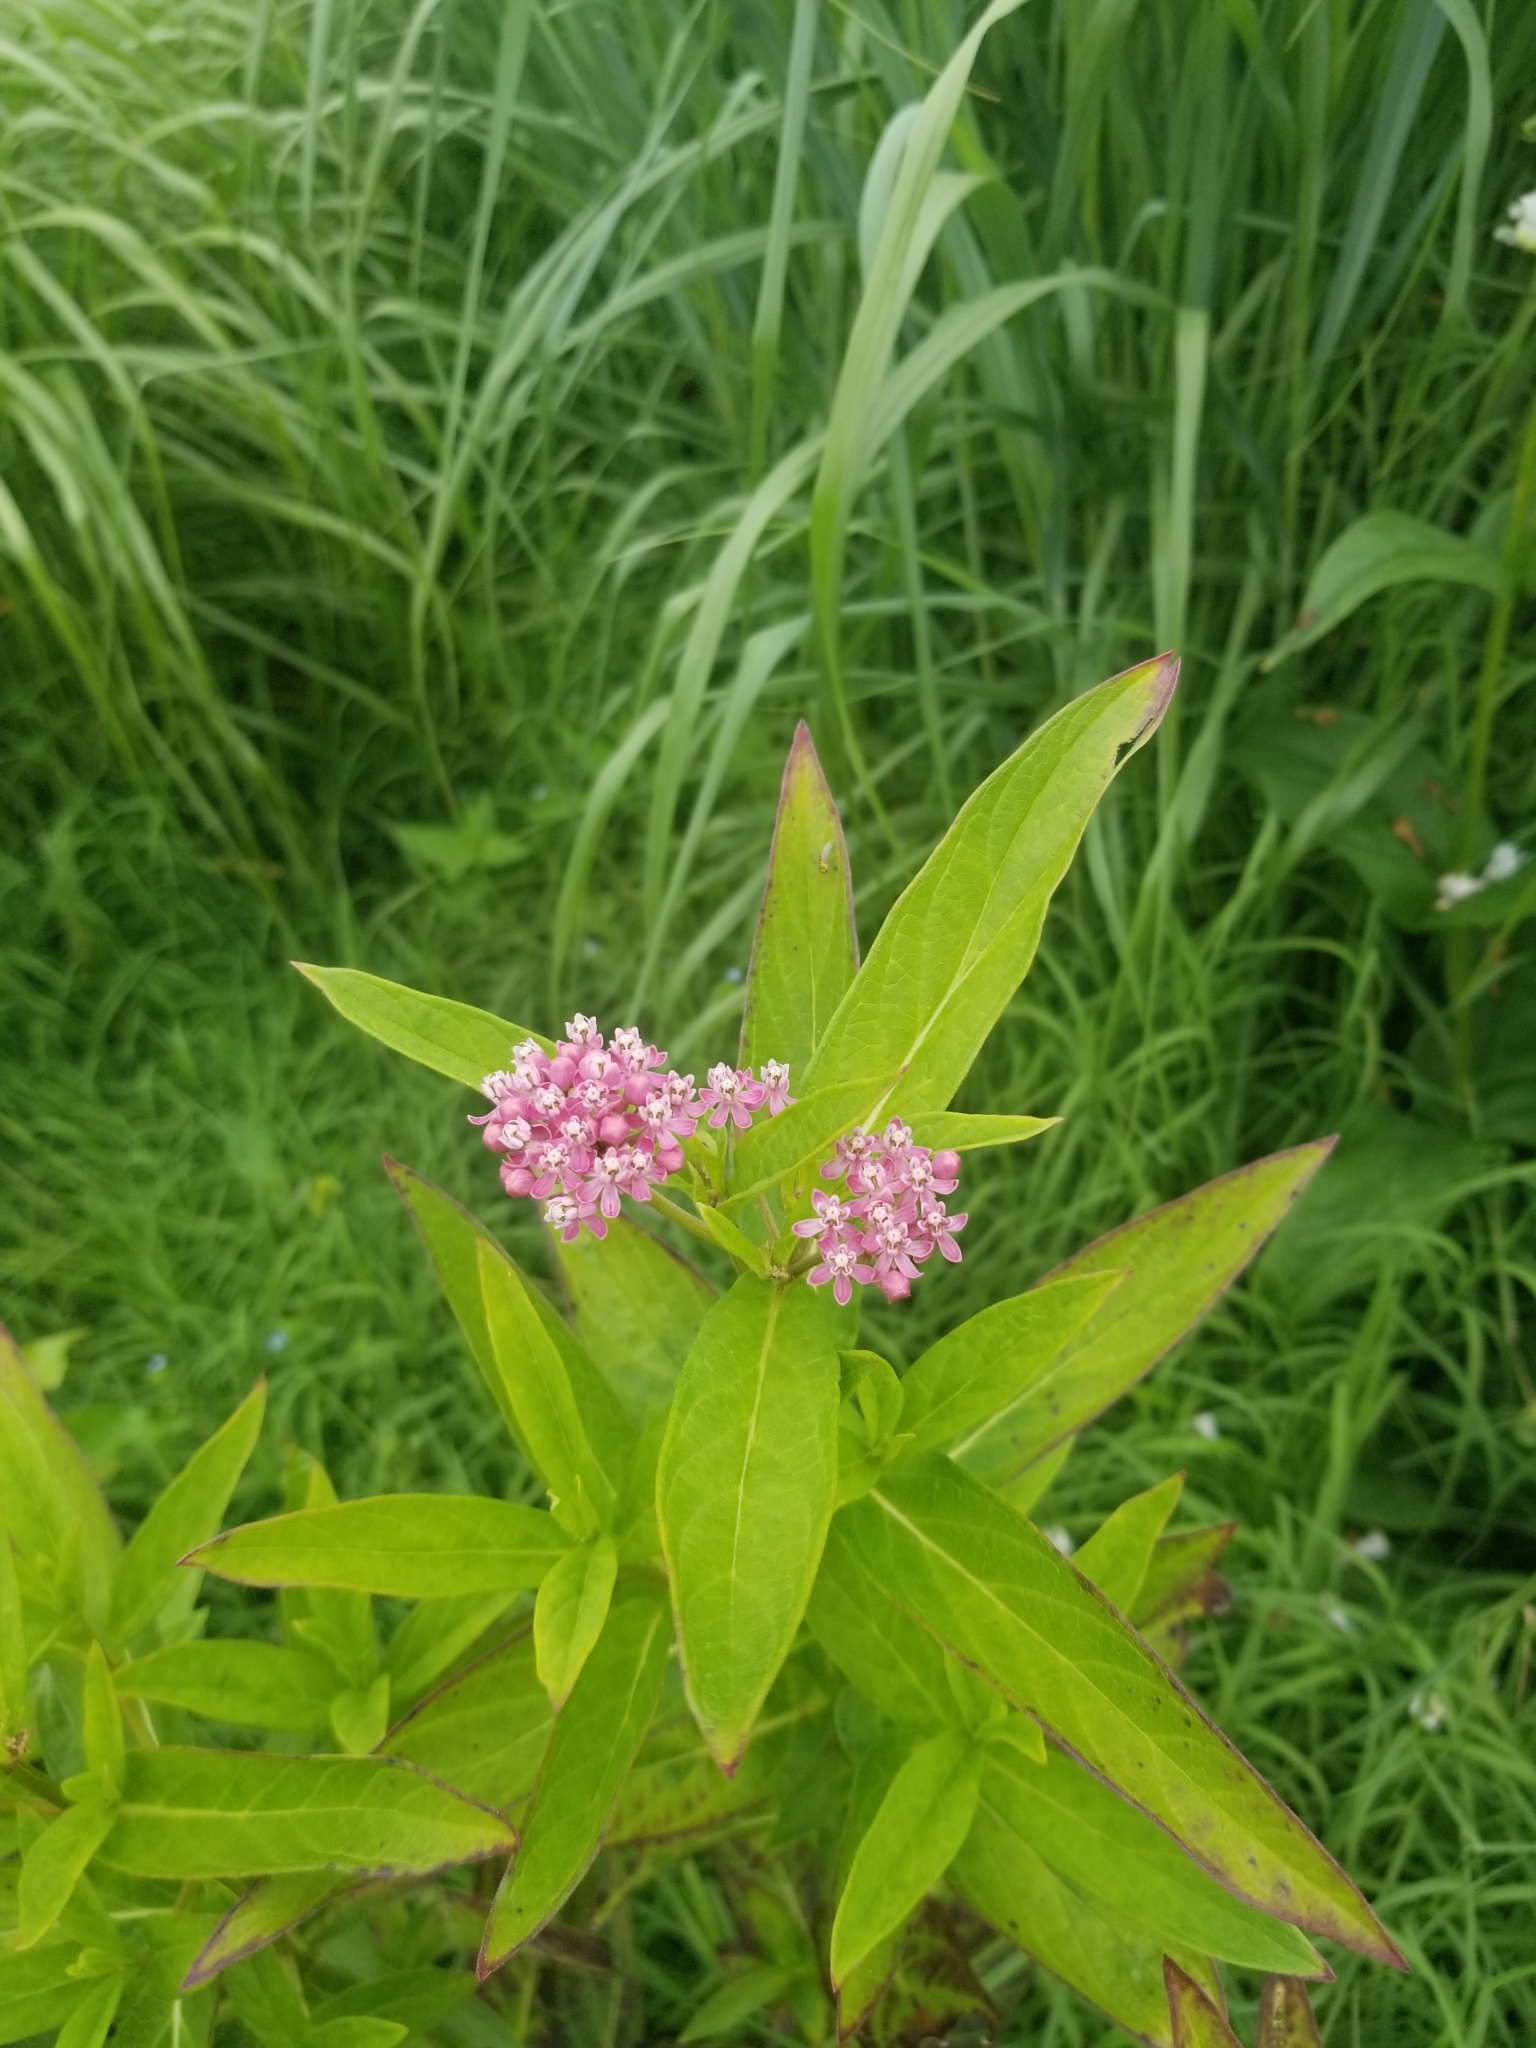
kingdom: Plantae
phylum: Tracheophyta
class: Magnoliopsida
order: Gentianales
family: Apocynaceae
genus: Asclepias
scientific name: Asclepias incarnata
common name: Swamp milkweed
